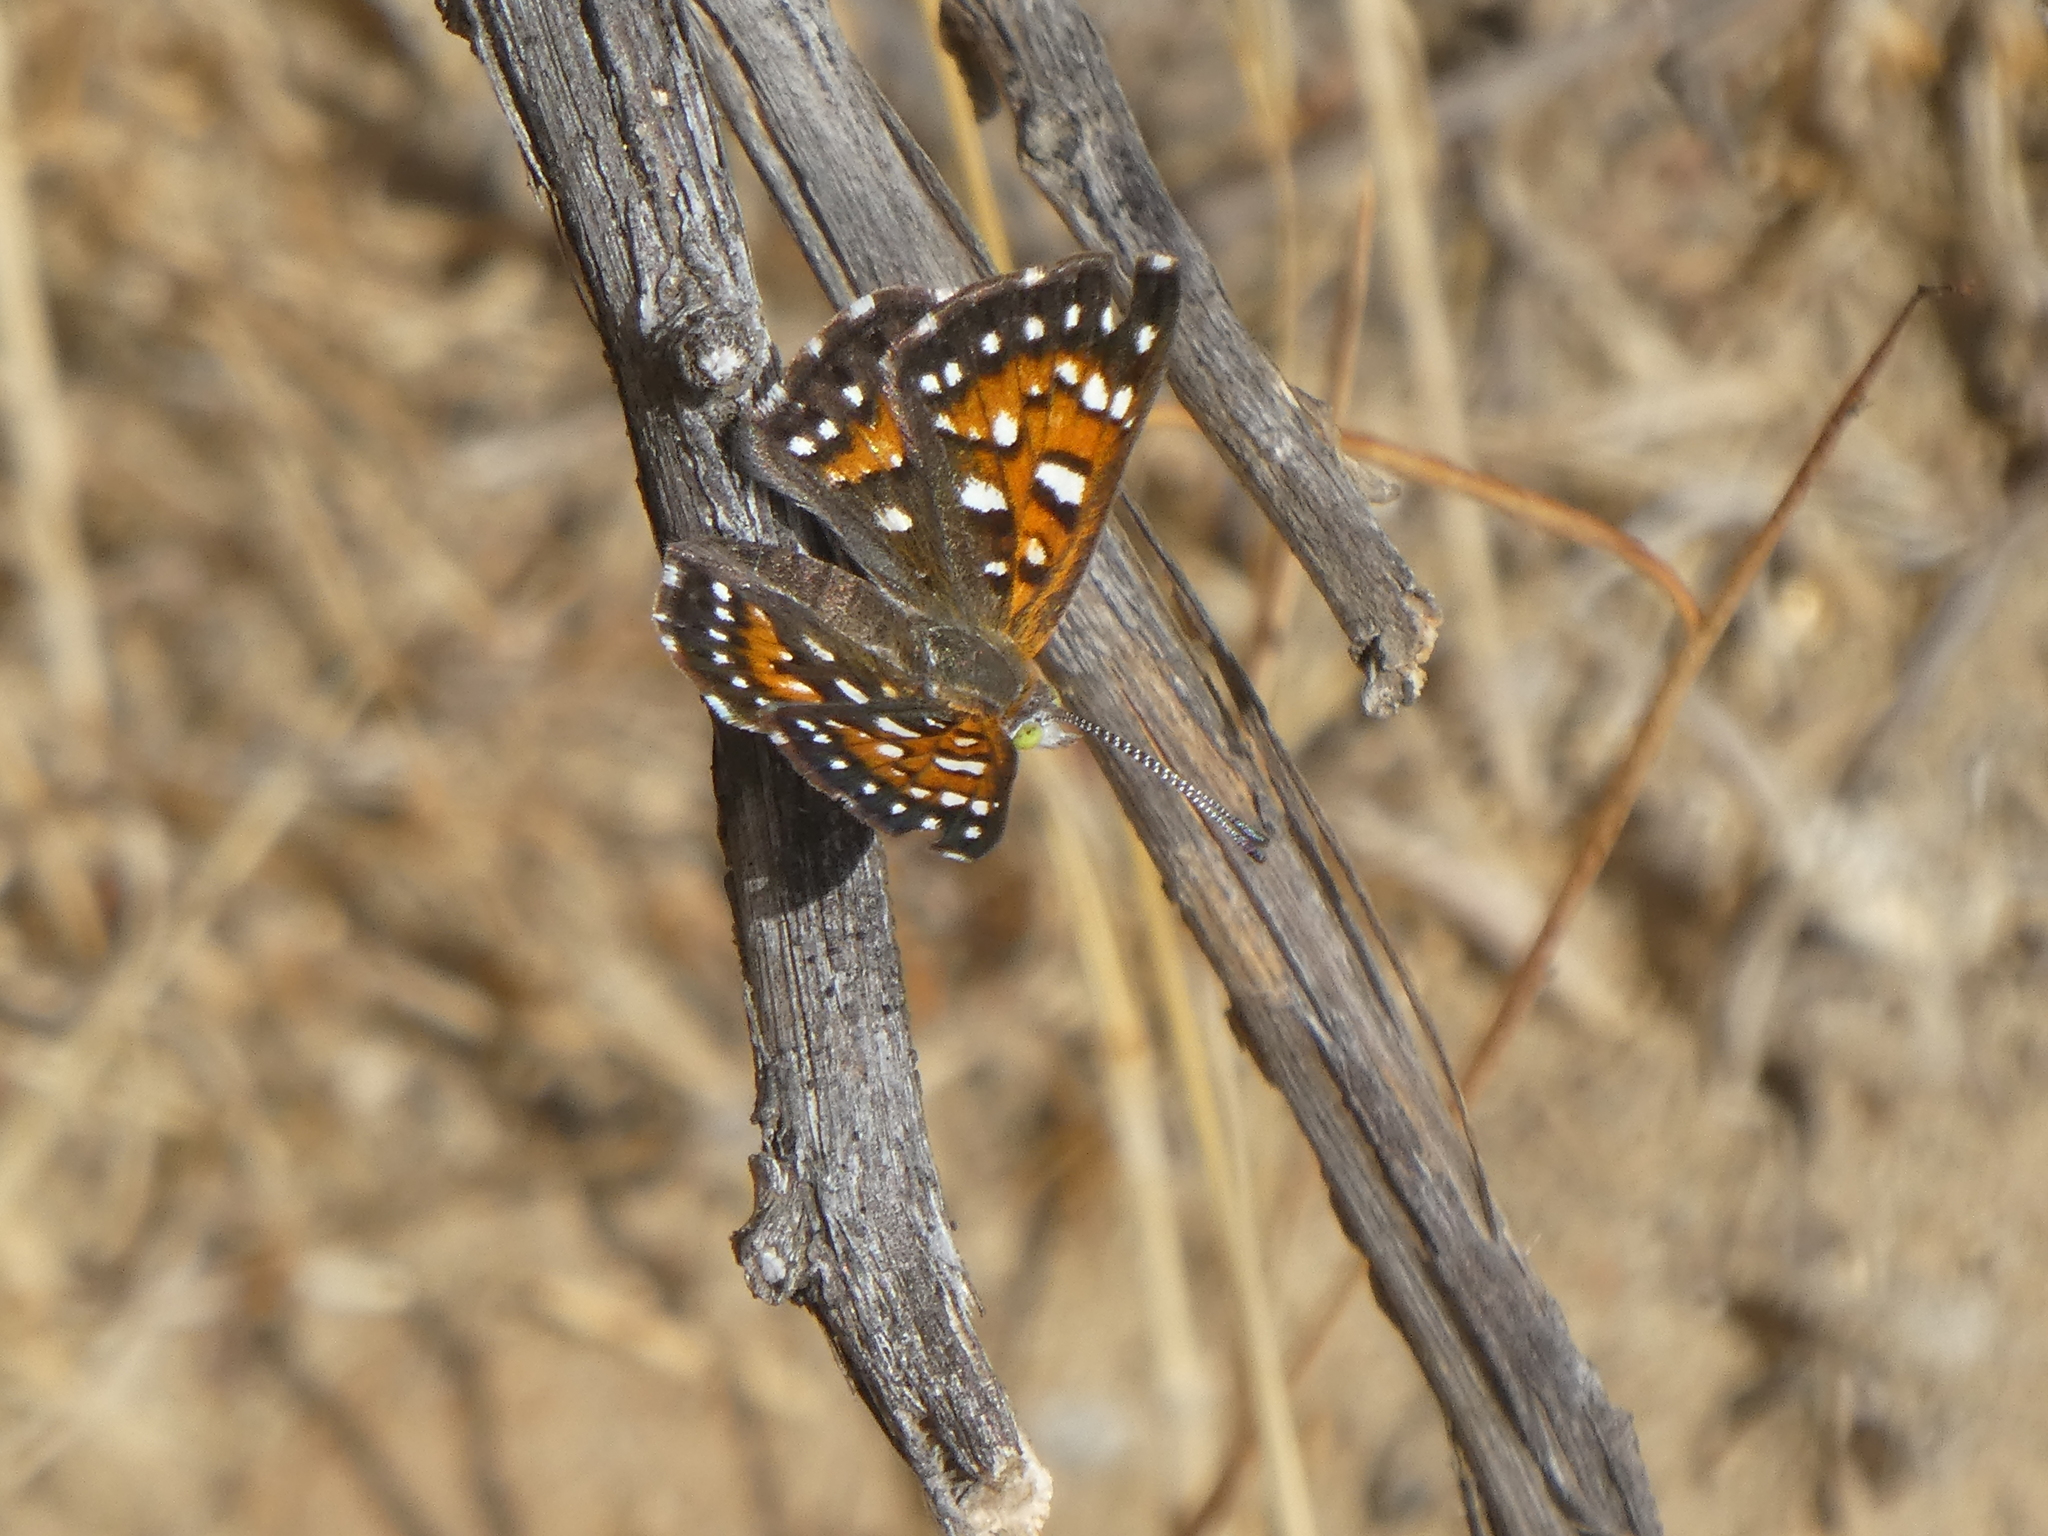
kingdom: Animalia
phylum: Arthropoda
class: Insecta
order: Lepidoptera
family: Riodinidae
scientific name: Riodinidae
